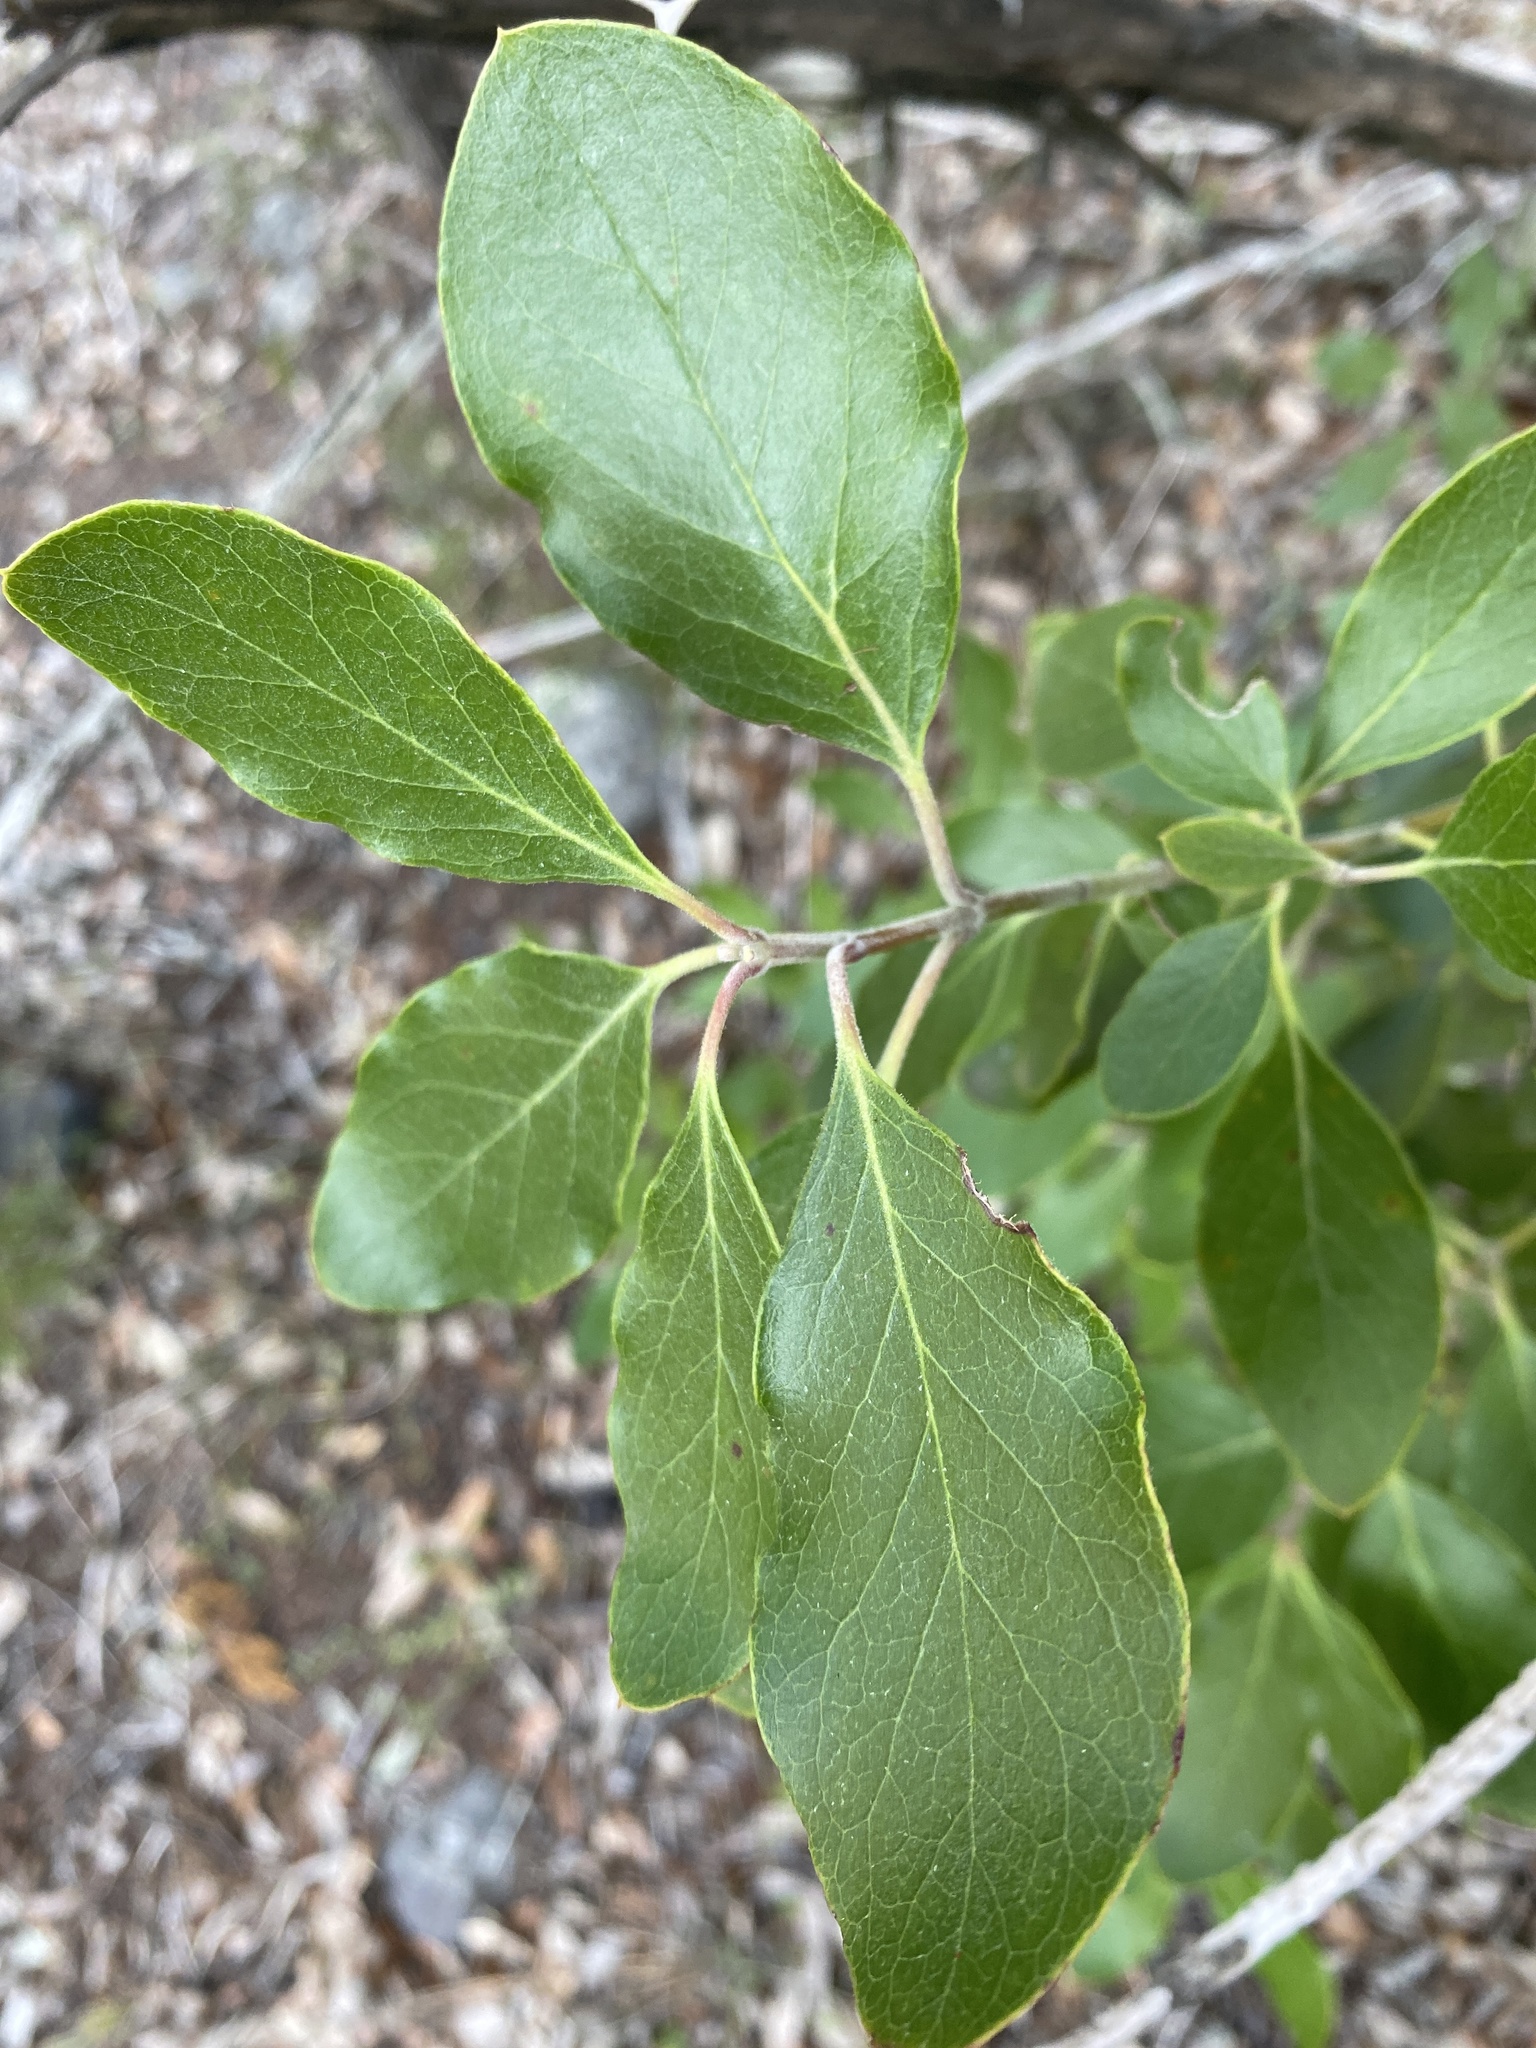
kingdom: Plantae
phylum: Tracheophyta
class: Magnoliopsida
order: Garryales
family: Garryaceae
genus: Garrya
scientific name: Garrya lindheimeri
